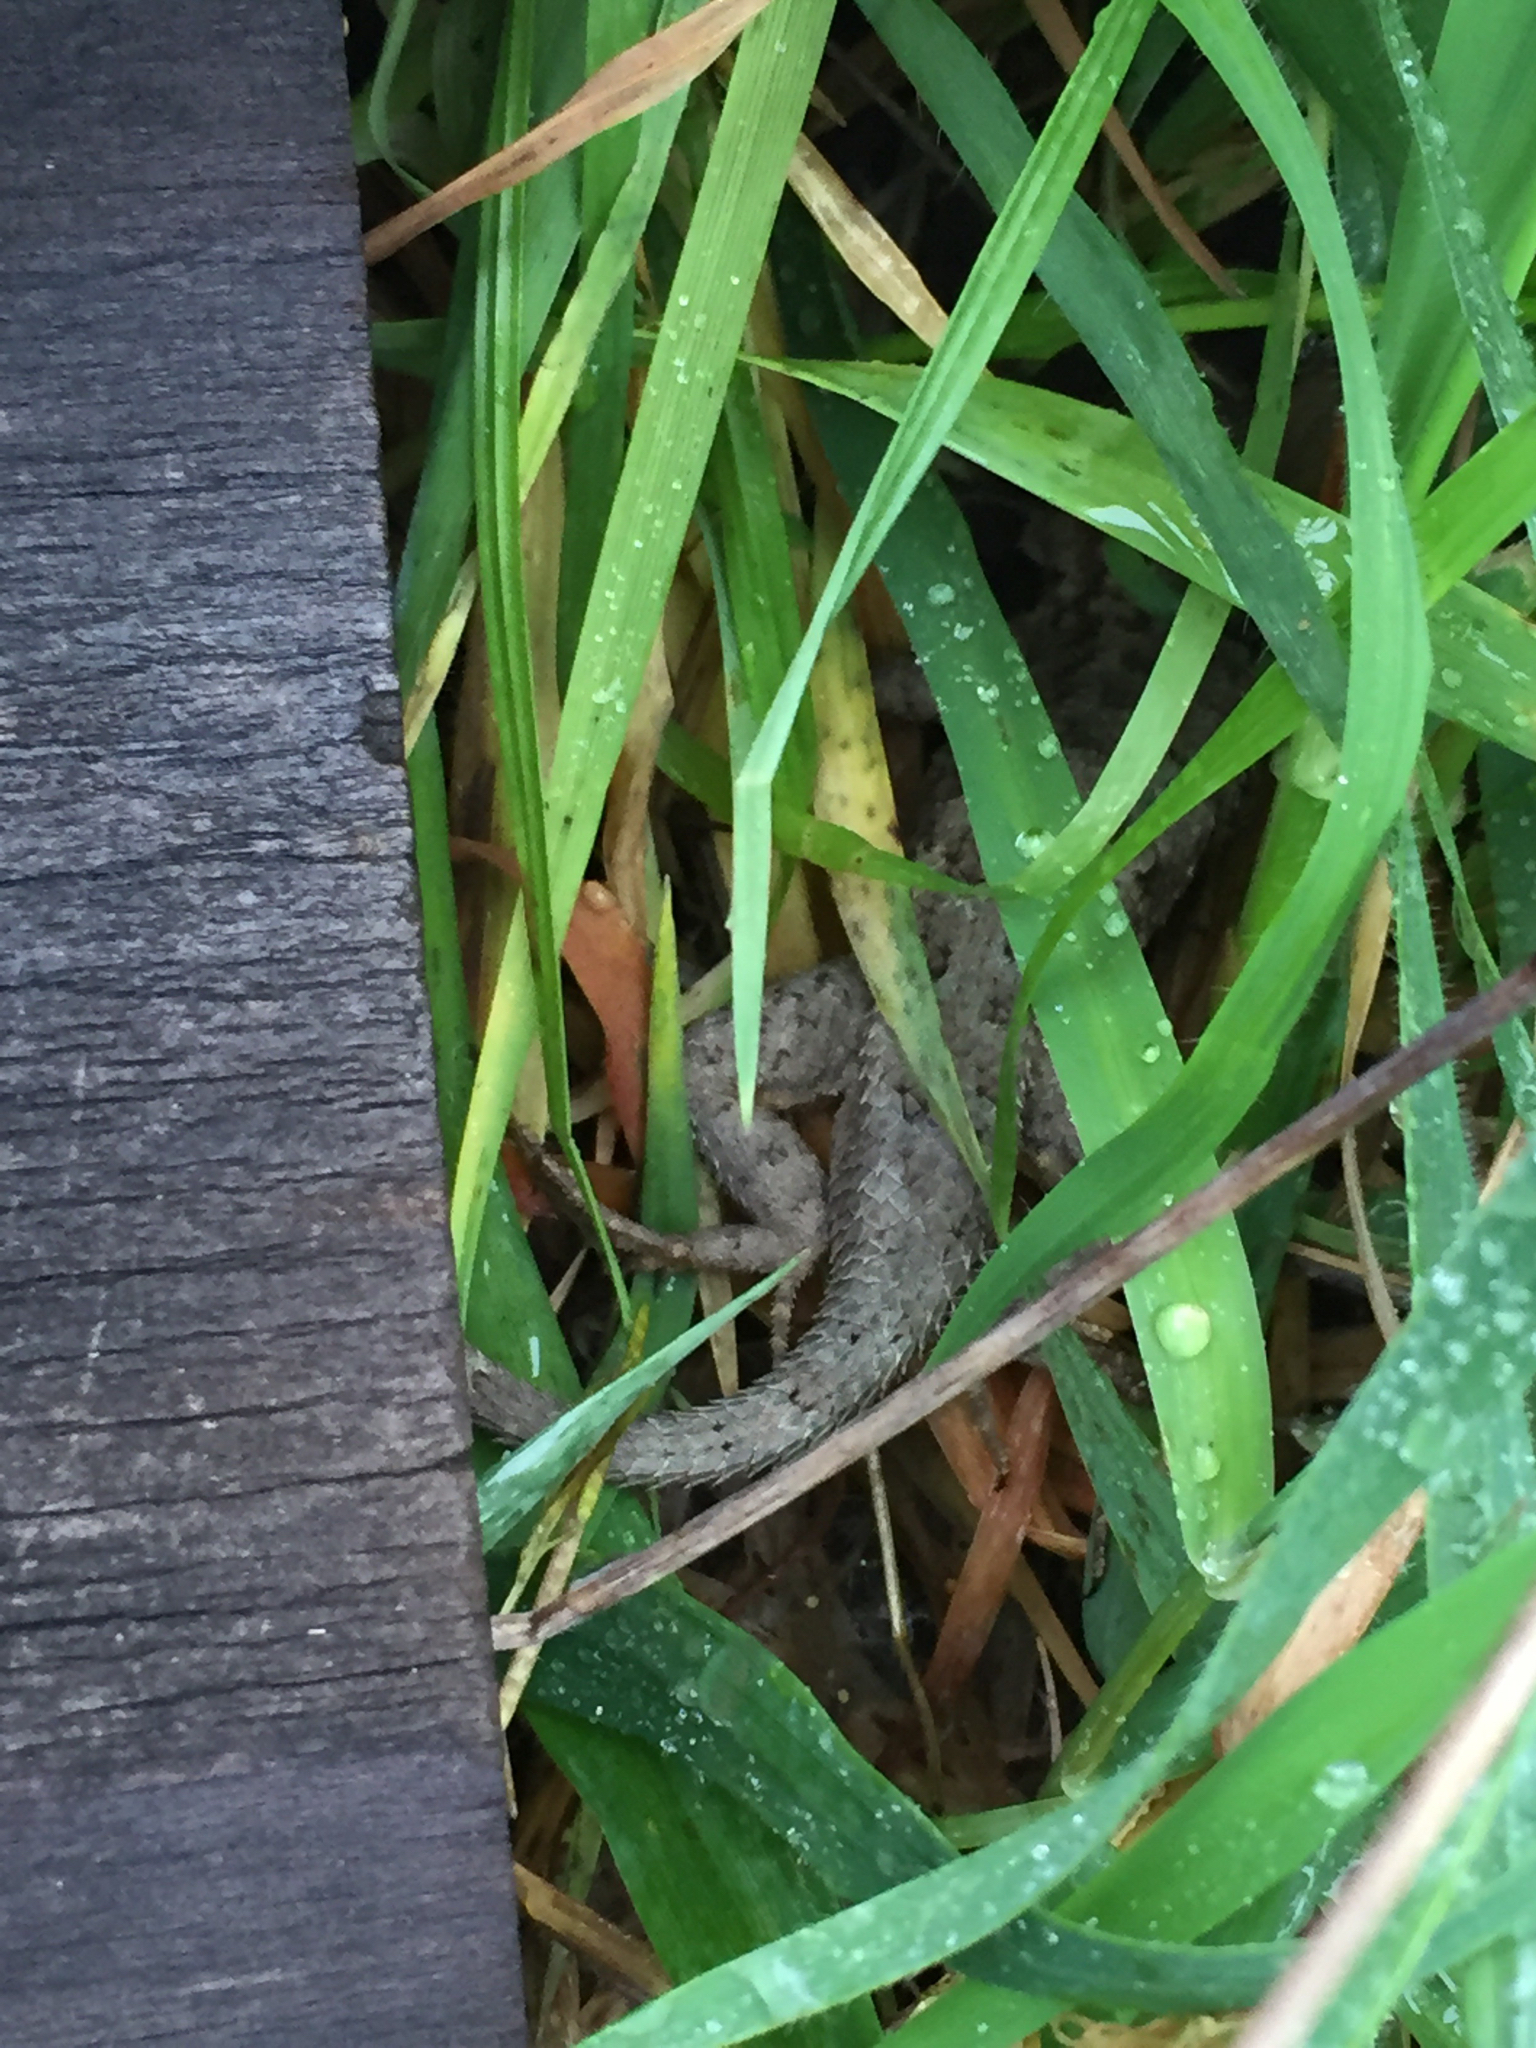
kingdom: Animalia
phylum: Chordata
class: Squamata
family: Phrynosomatidae
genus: Sceloporus
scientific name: Sceloporus occidentalis
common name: Western fence lizard
